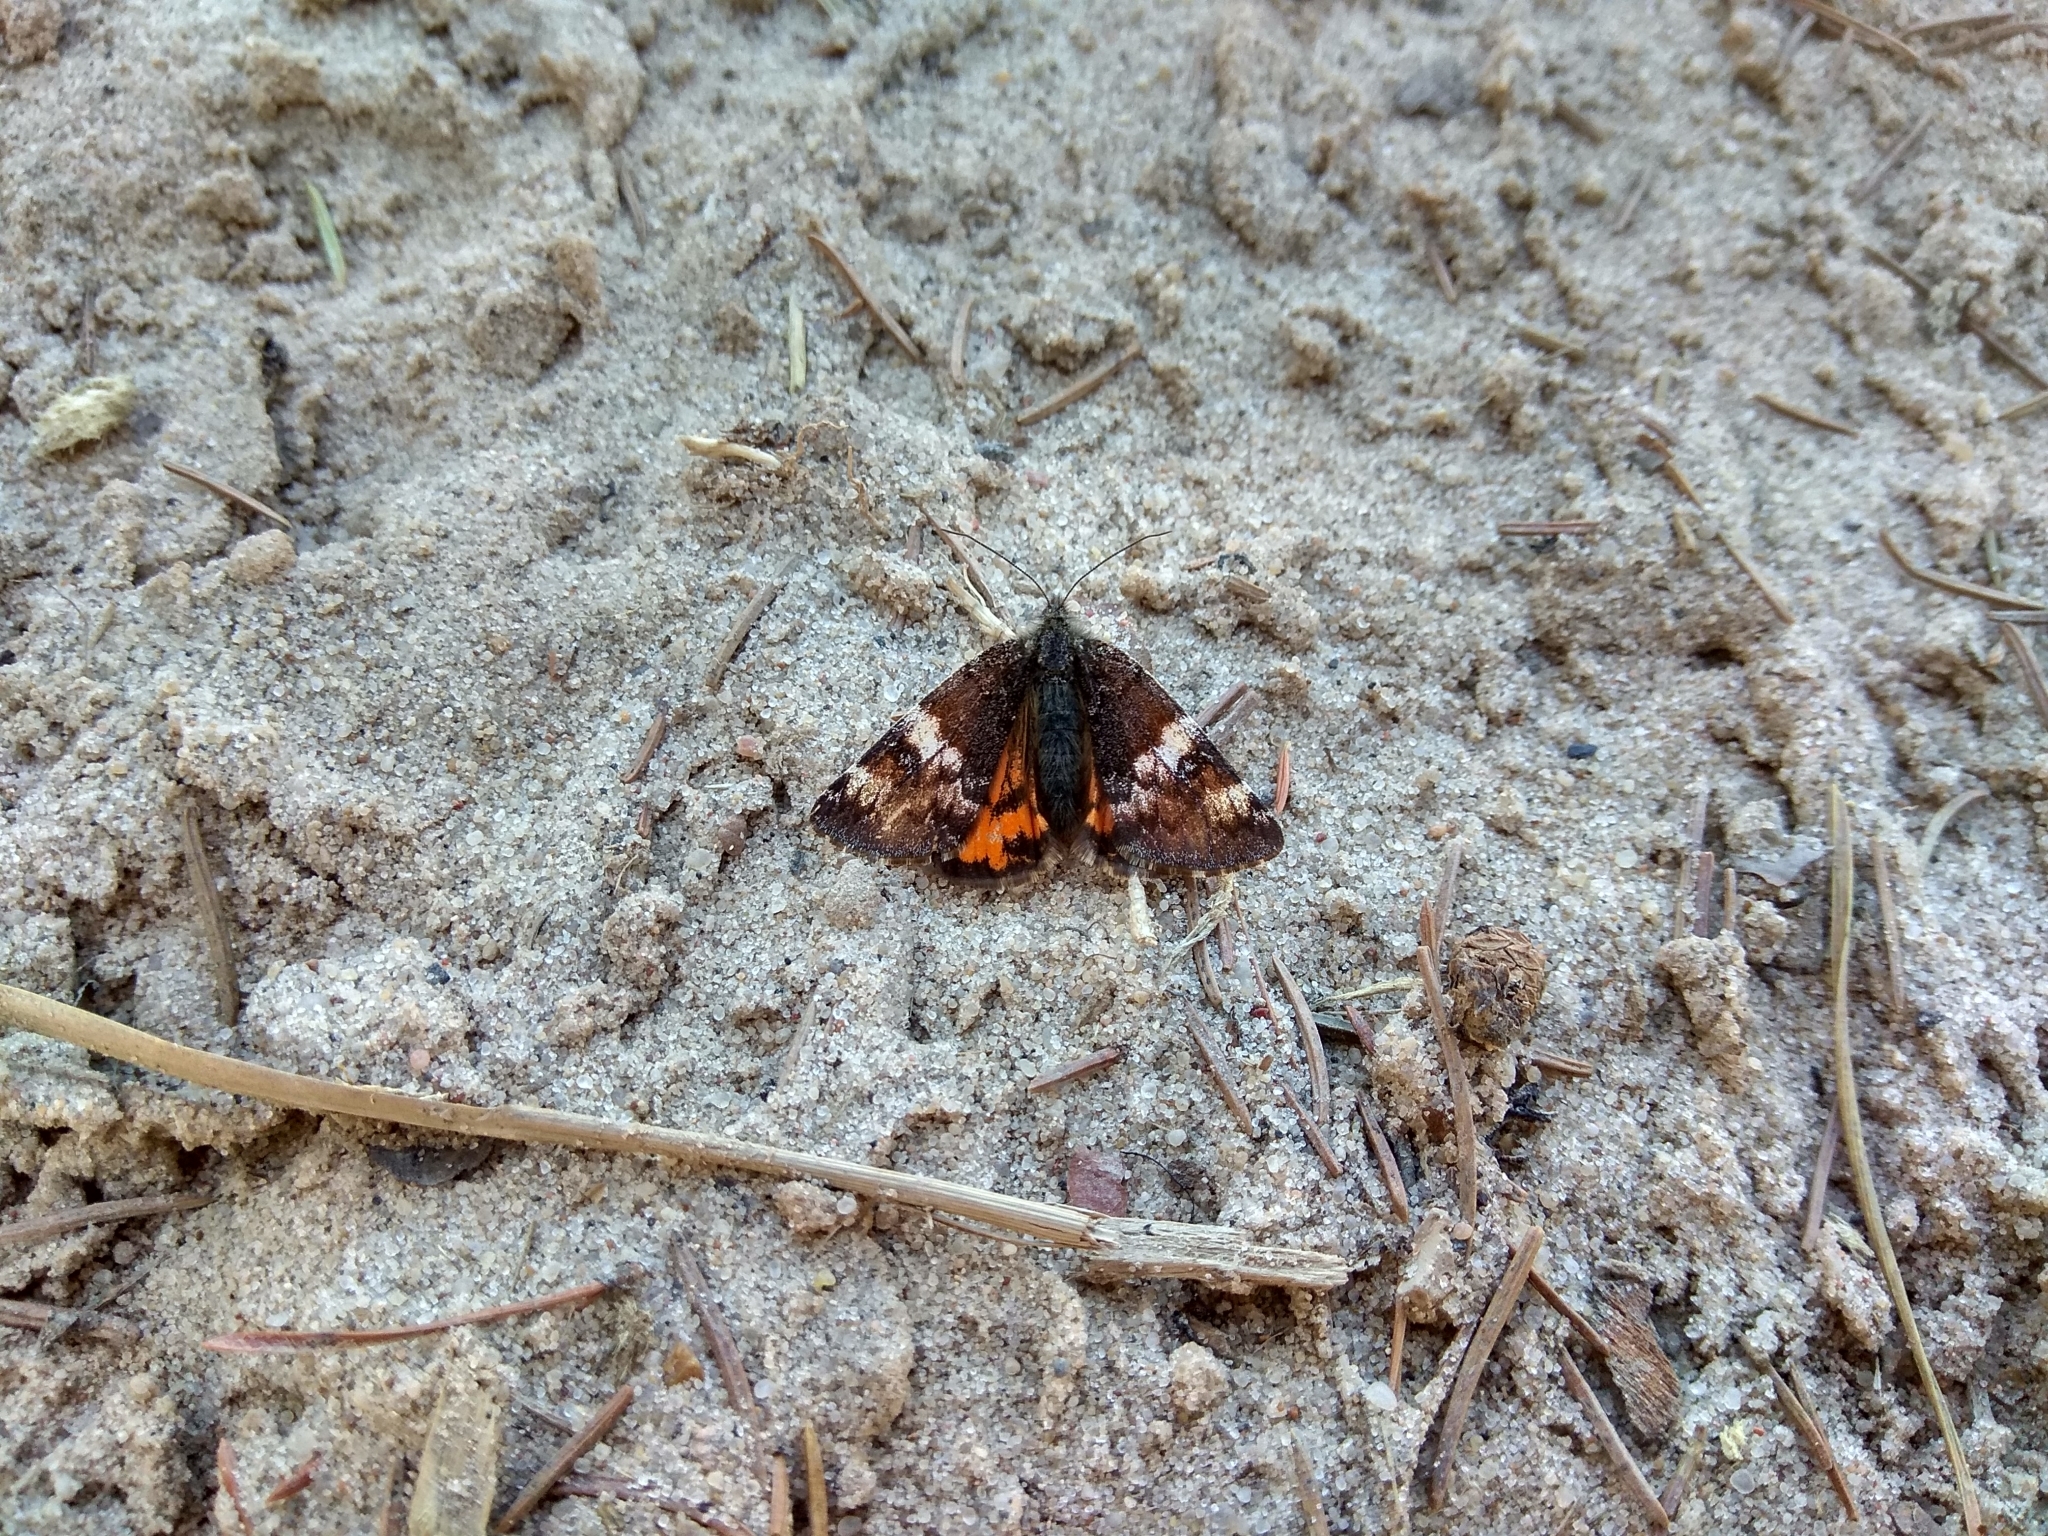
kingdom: Animalia
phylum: Arthropoda
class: Insecta
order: Lepidoptera
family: Geometridae
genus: Archiearis
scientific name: Archiearis parthenias
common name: Orange underwing
